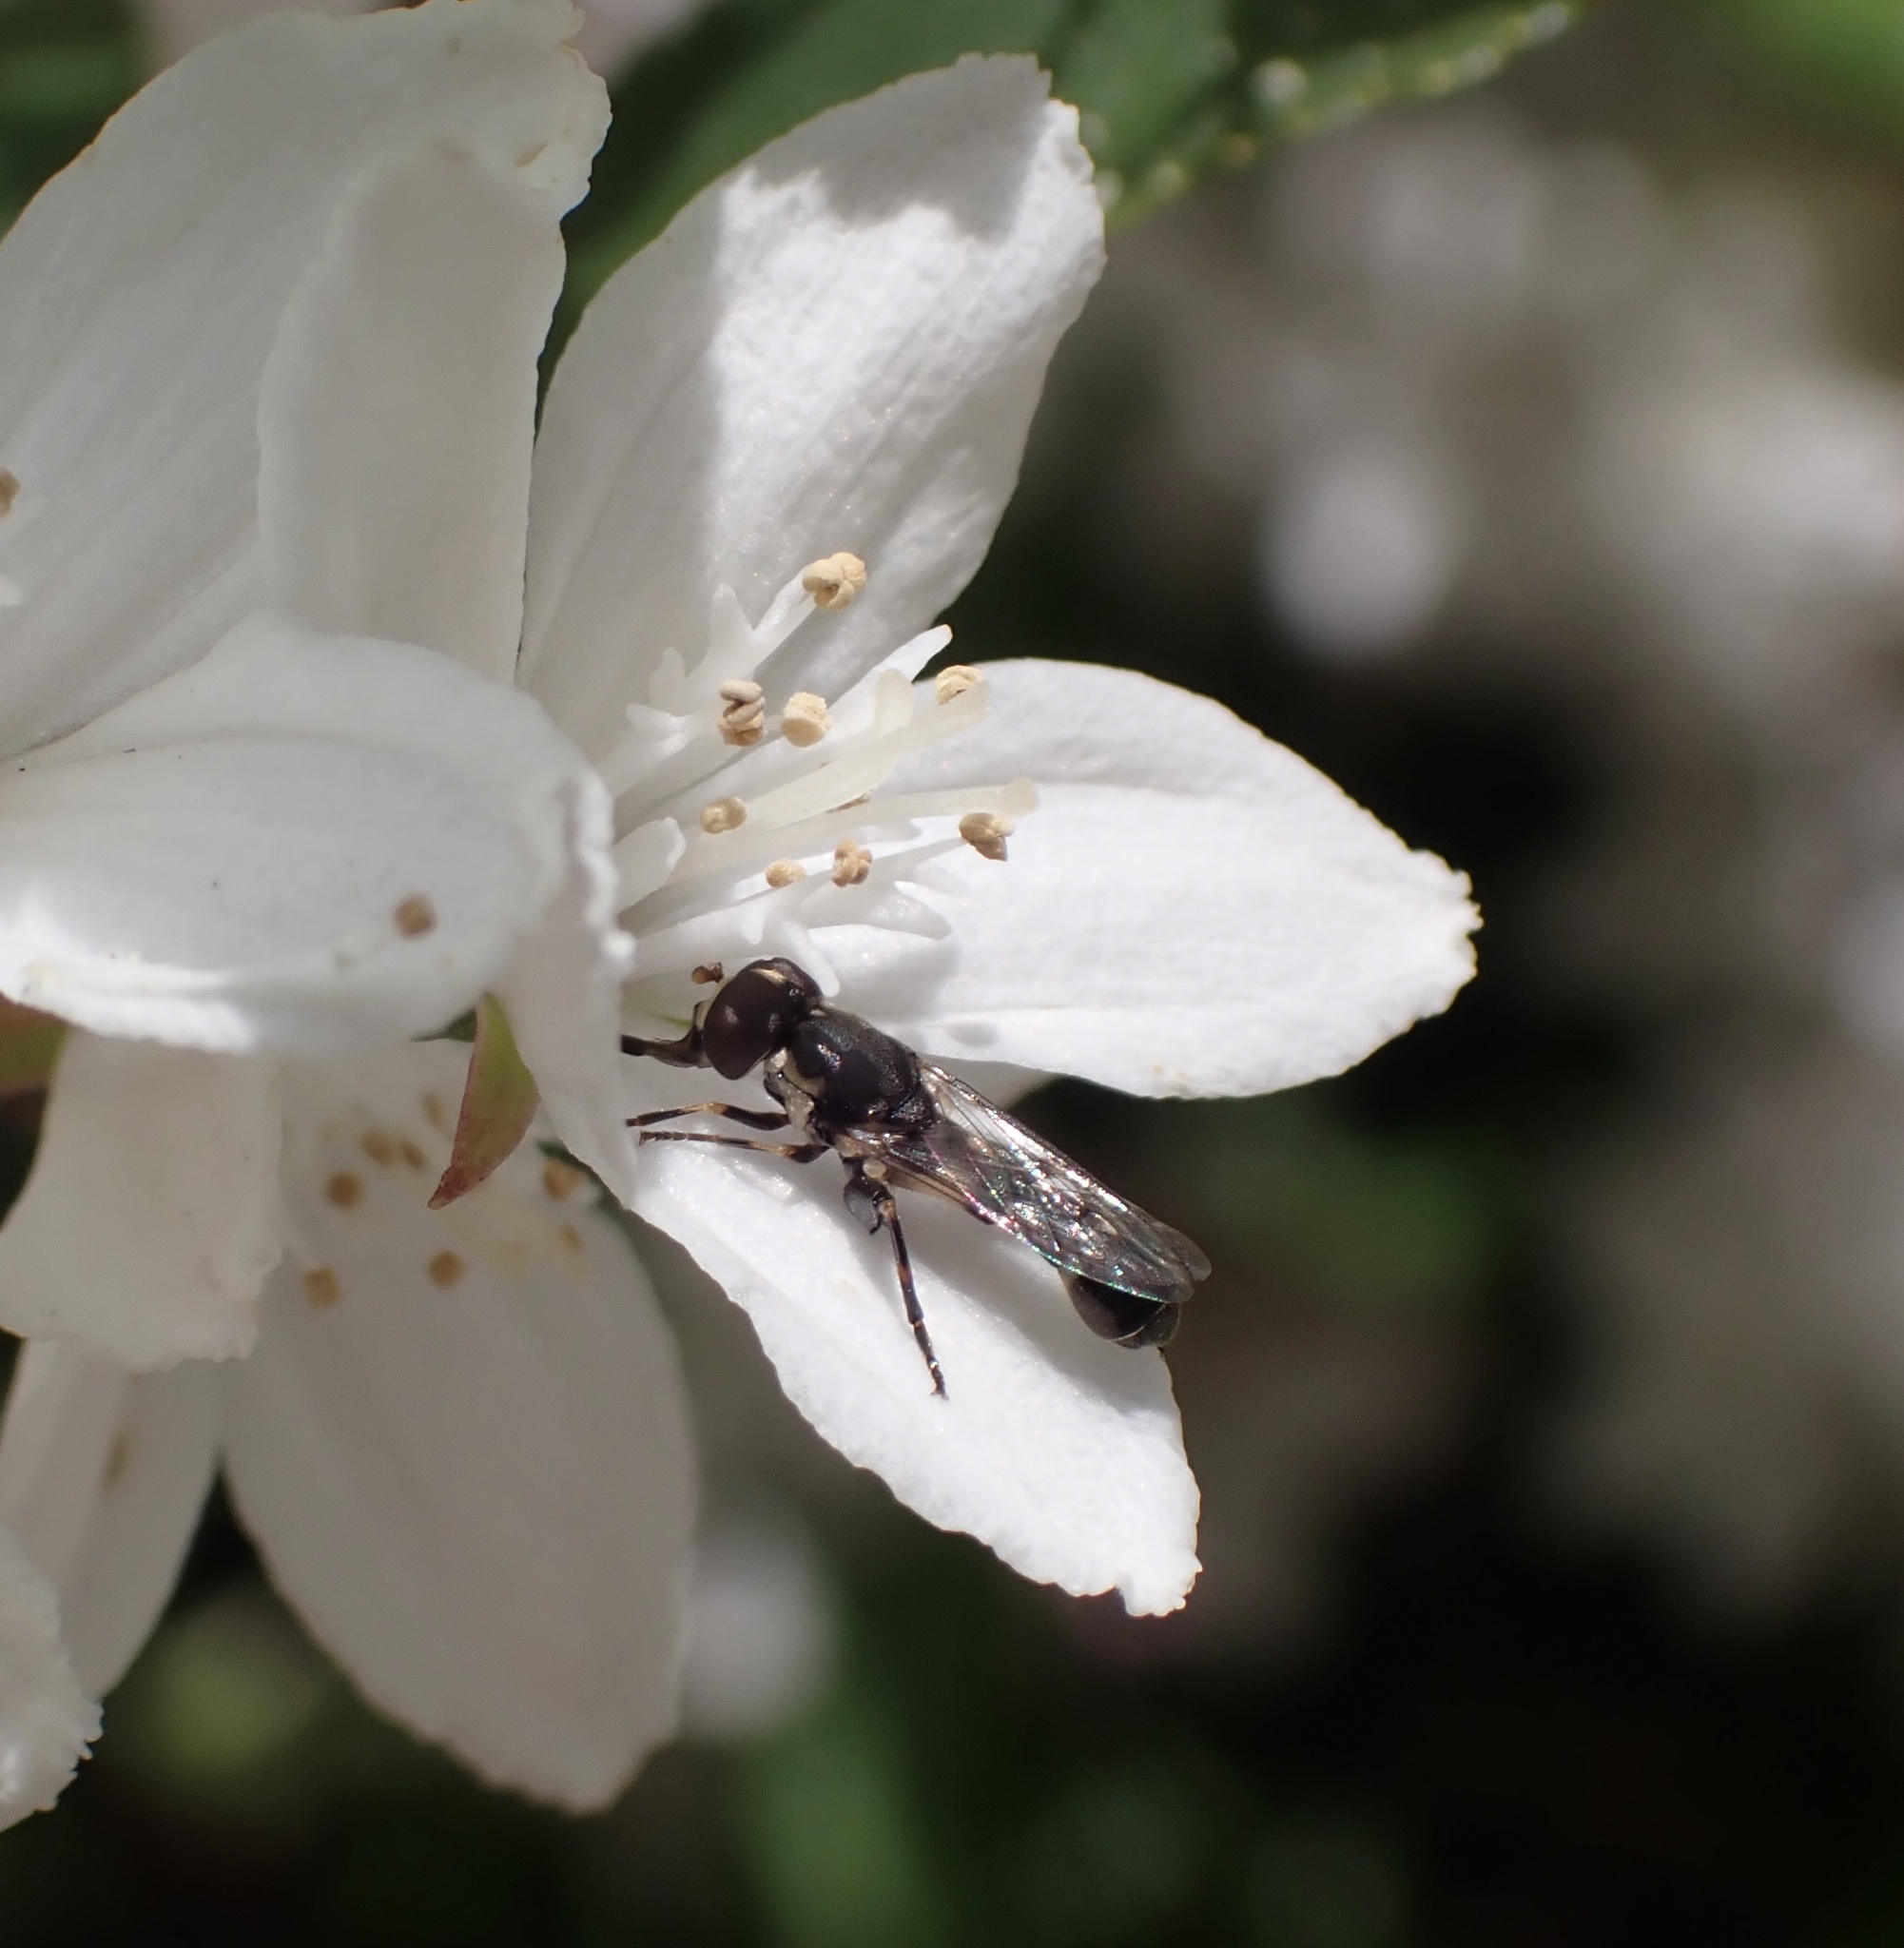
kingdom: Animalia
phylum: Arthropoda
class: Insecta
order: Diptera
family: Syrphidae
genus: Syritta
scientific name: Syritta pipiens
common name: Hover fly
